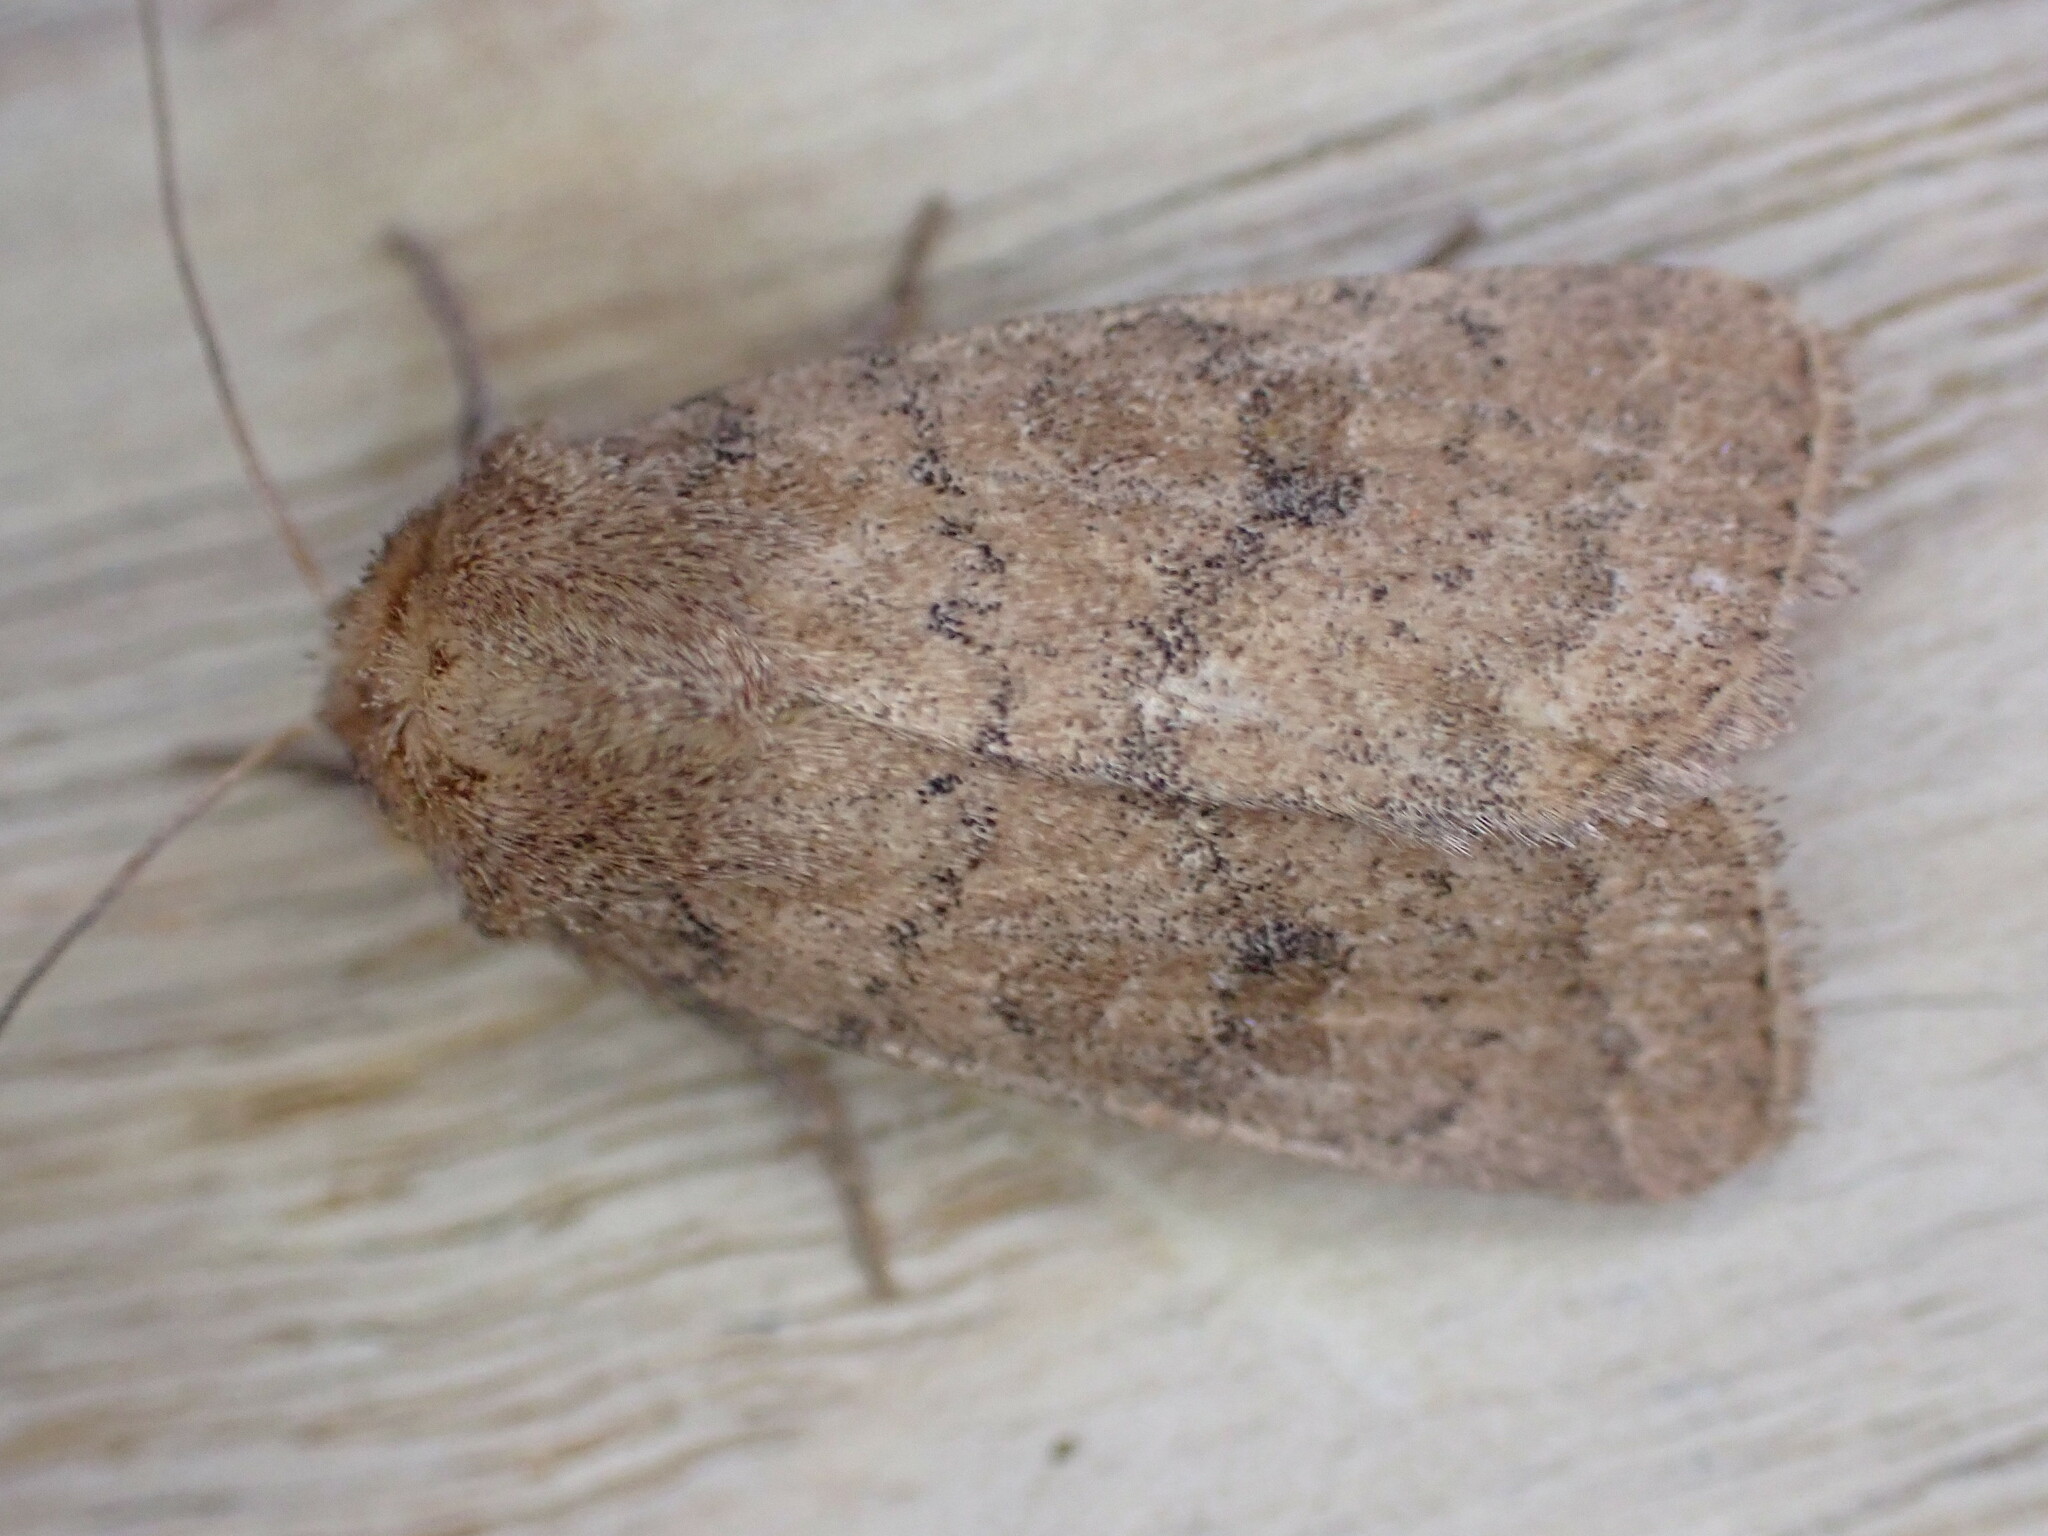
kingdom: Animalia
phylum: Arthropoda
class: Insecta
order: Lepidoptera
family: Noctuidae
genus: Hoplodrina
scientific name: Hoplodrina octogenaria
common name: Uncertain
